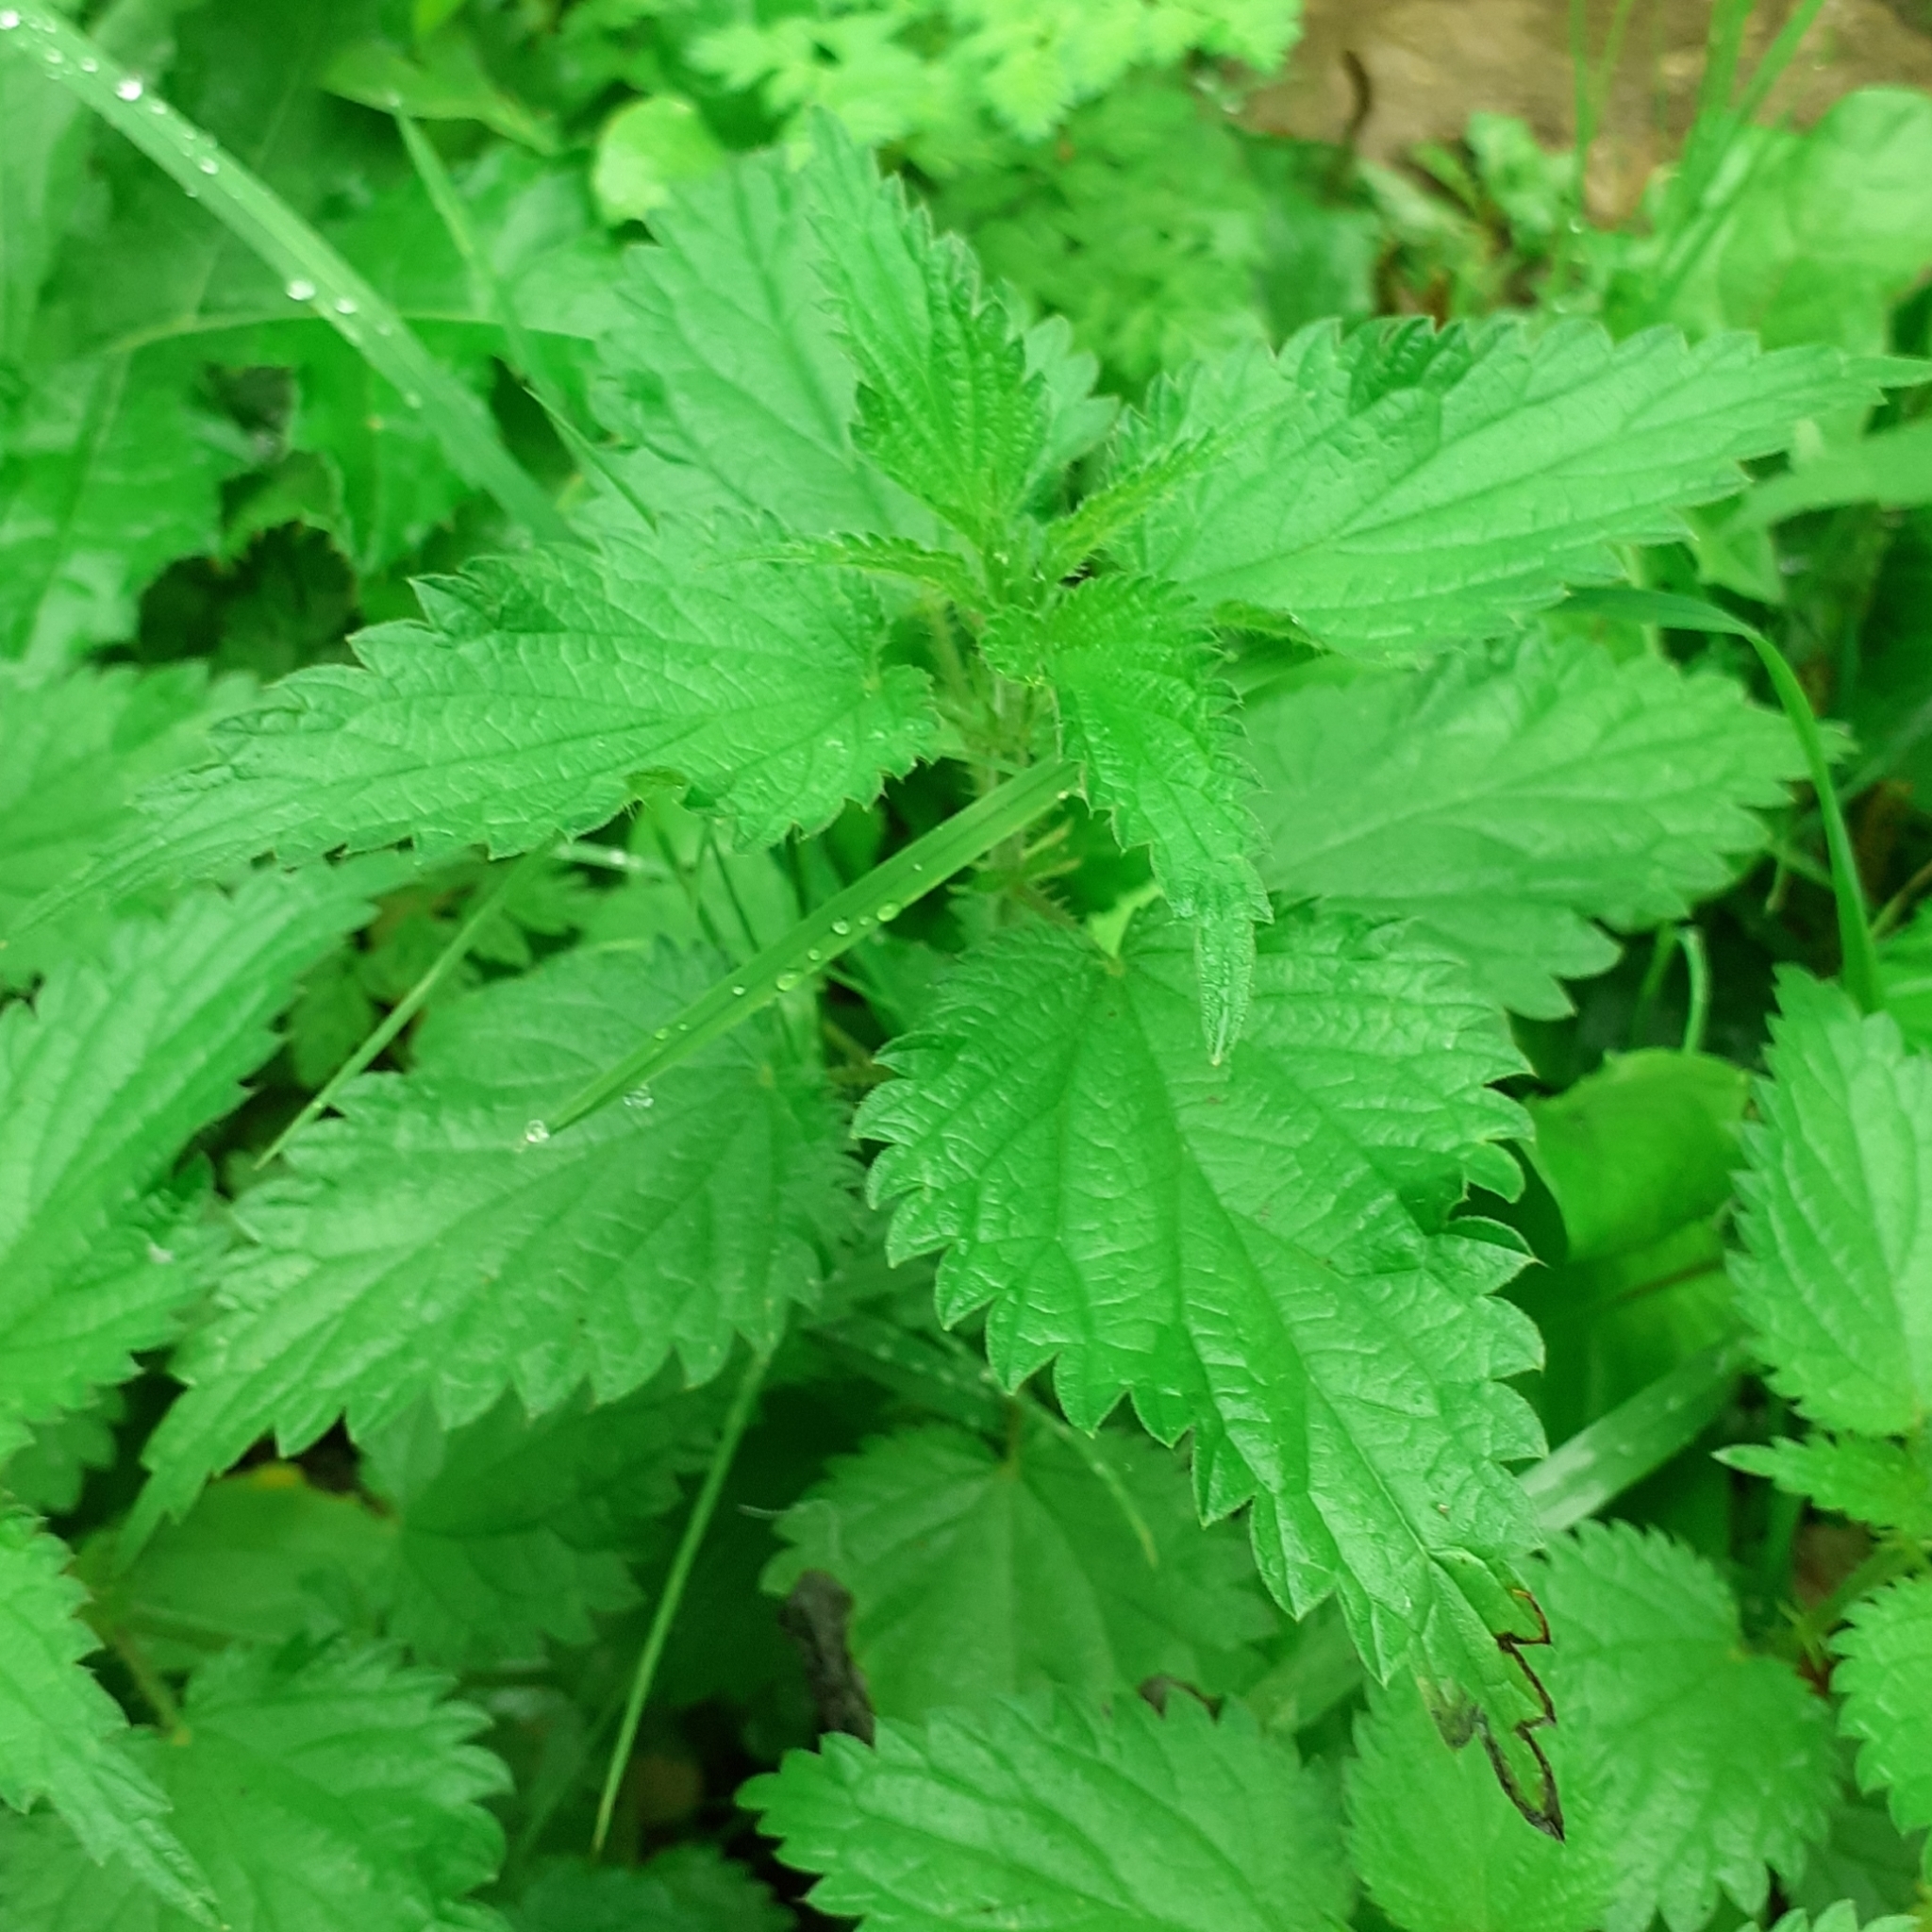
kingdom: Plantae
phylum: Tracheophyta
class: Magnoliopsida
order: Rosales
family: Urticaceae
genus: Urtica
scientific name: Urtica dioica
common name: Common nettle
